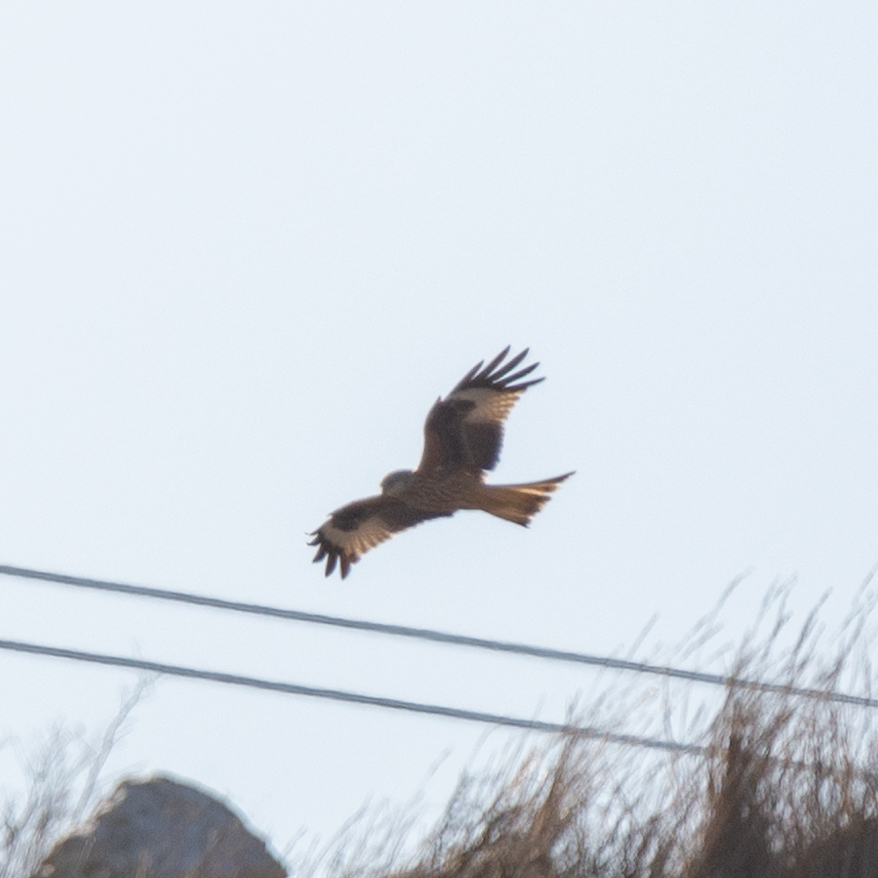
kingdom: Animalia
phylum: Chordata
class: Aves
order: Accipitriformes
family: Accipitridae
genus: Milvus
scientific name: Milvus milvus
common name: Red kite
